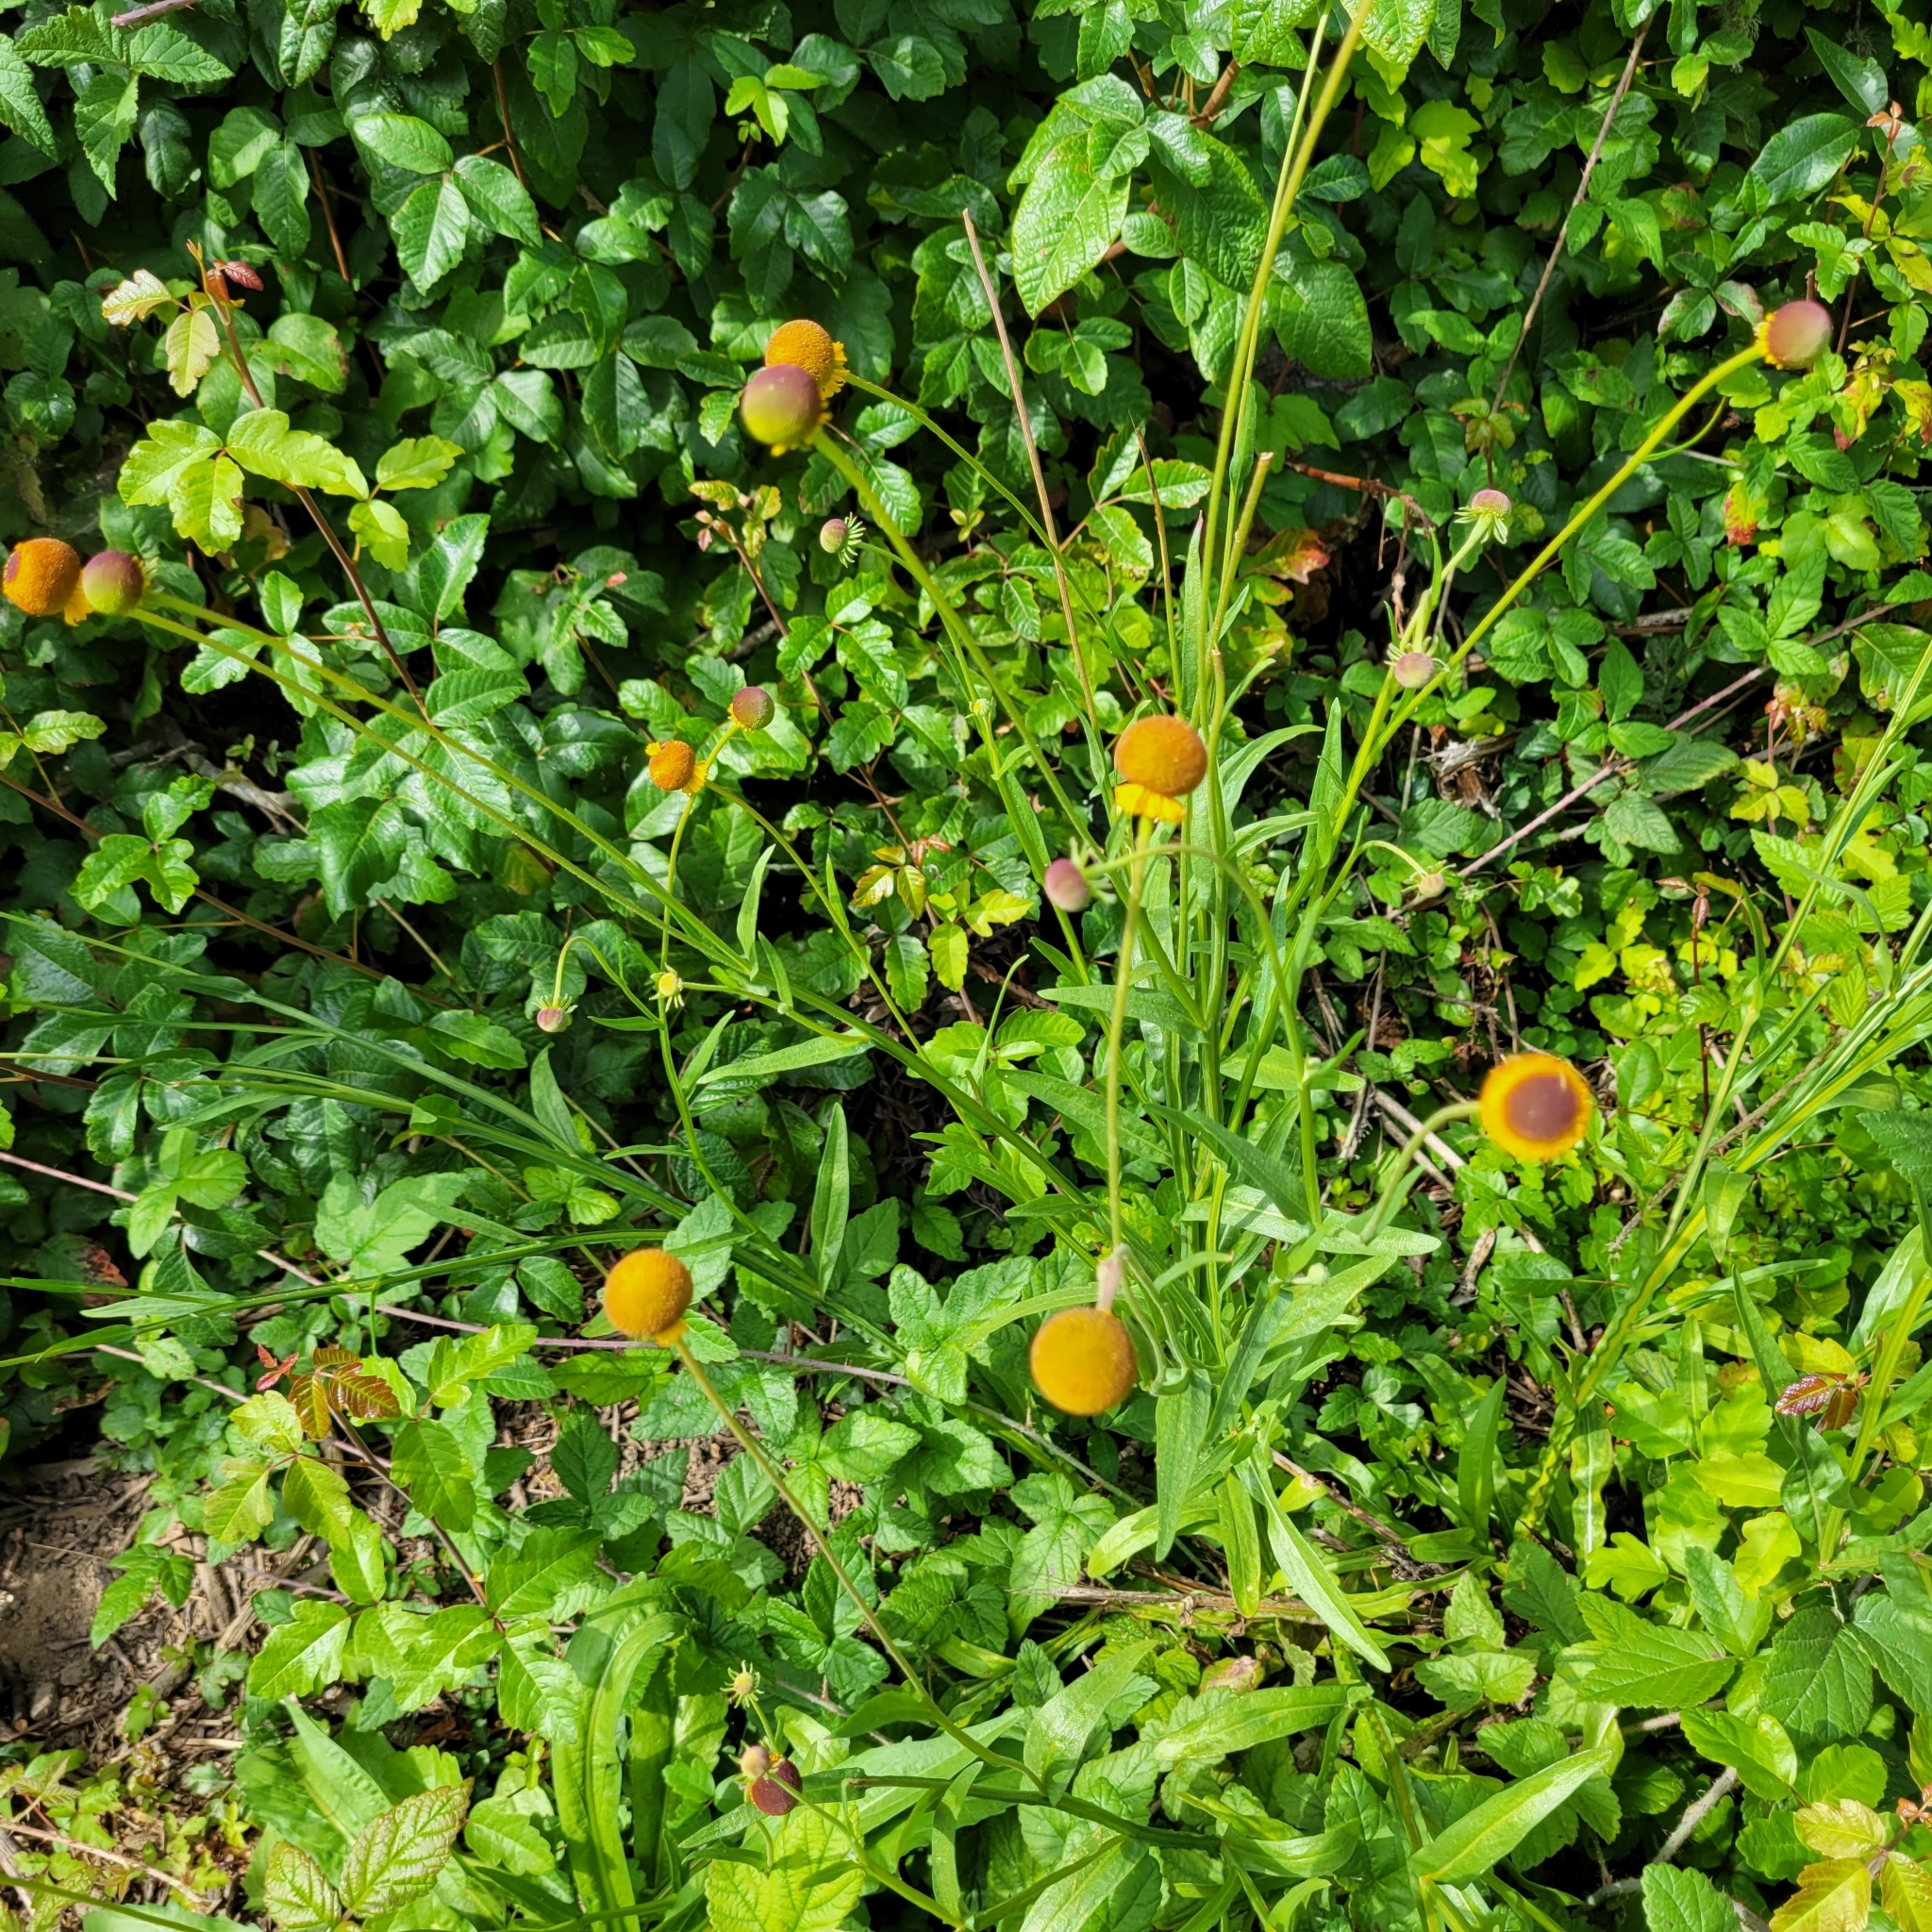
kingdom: Plantae
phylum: Tracheophyta
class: Magnoliopsida
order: Asterales
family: Asteraceae
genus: Helenium
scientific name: Helenium puberulum
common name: Sneezewort
